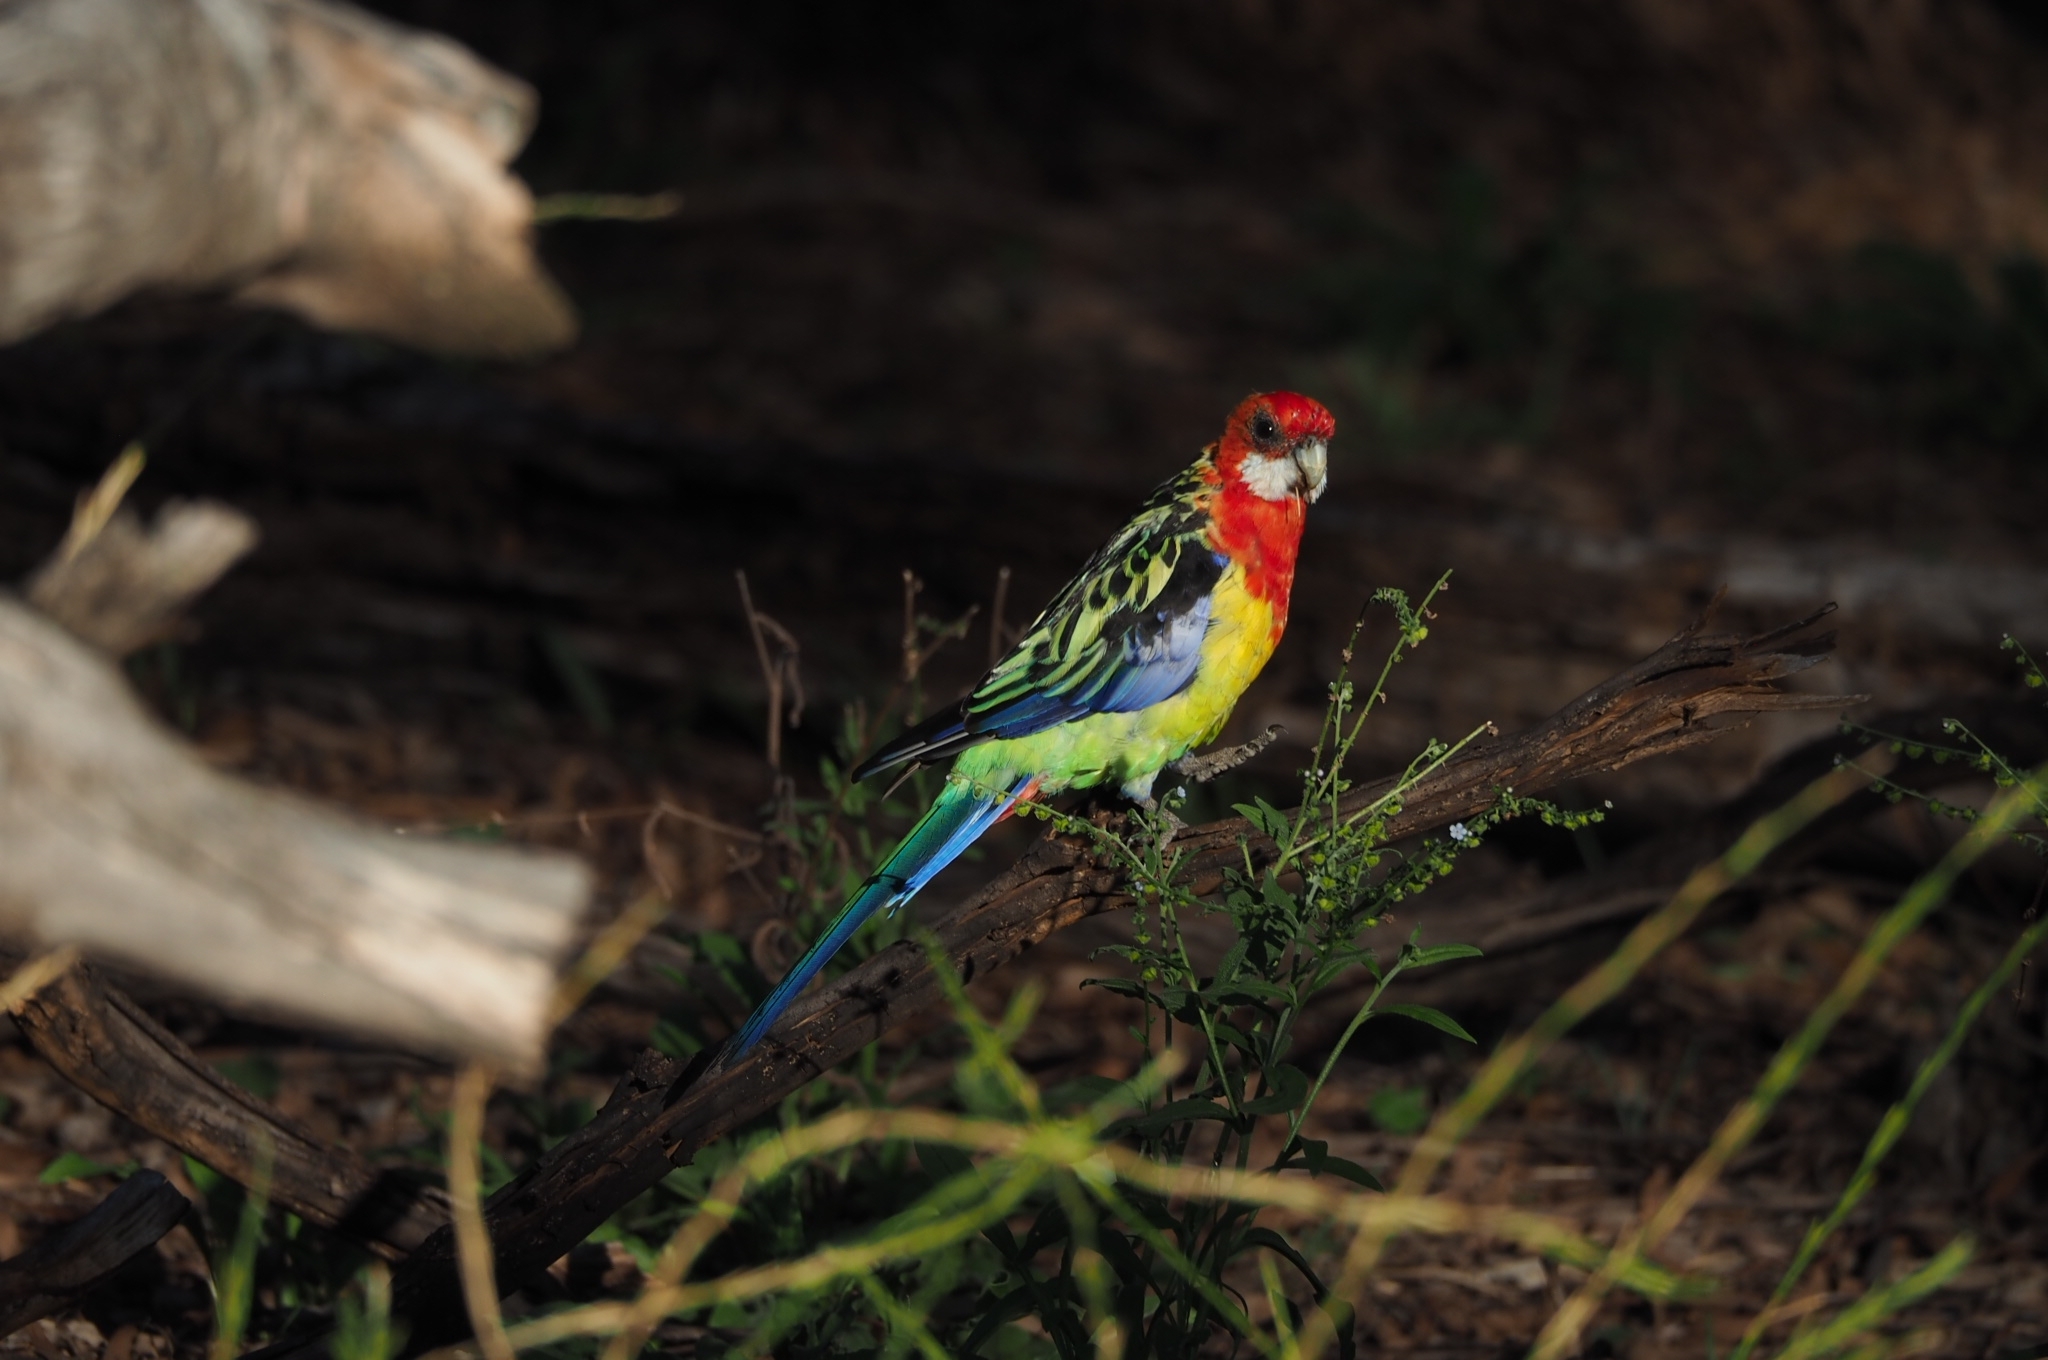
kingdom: Animalia
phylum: Chordata
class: Aves
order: Psittaciformes
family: Psittacidae
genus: Platycercus
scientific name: Platycercus eximius
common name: Eastern rosella
